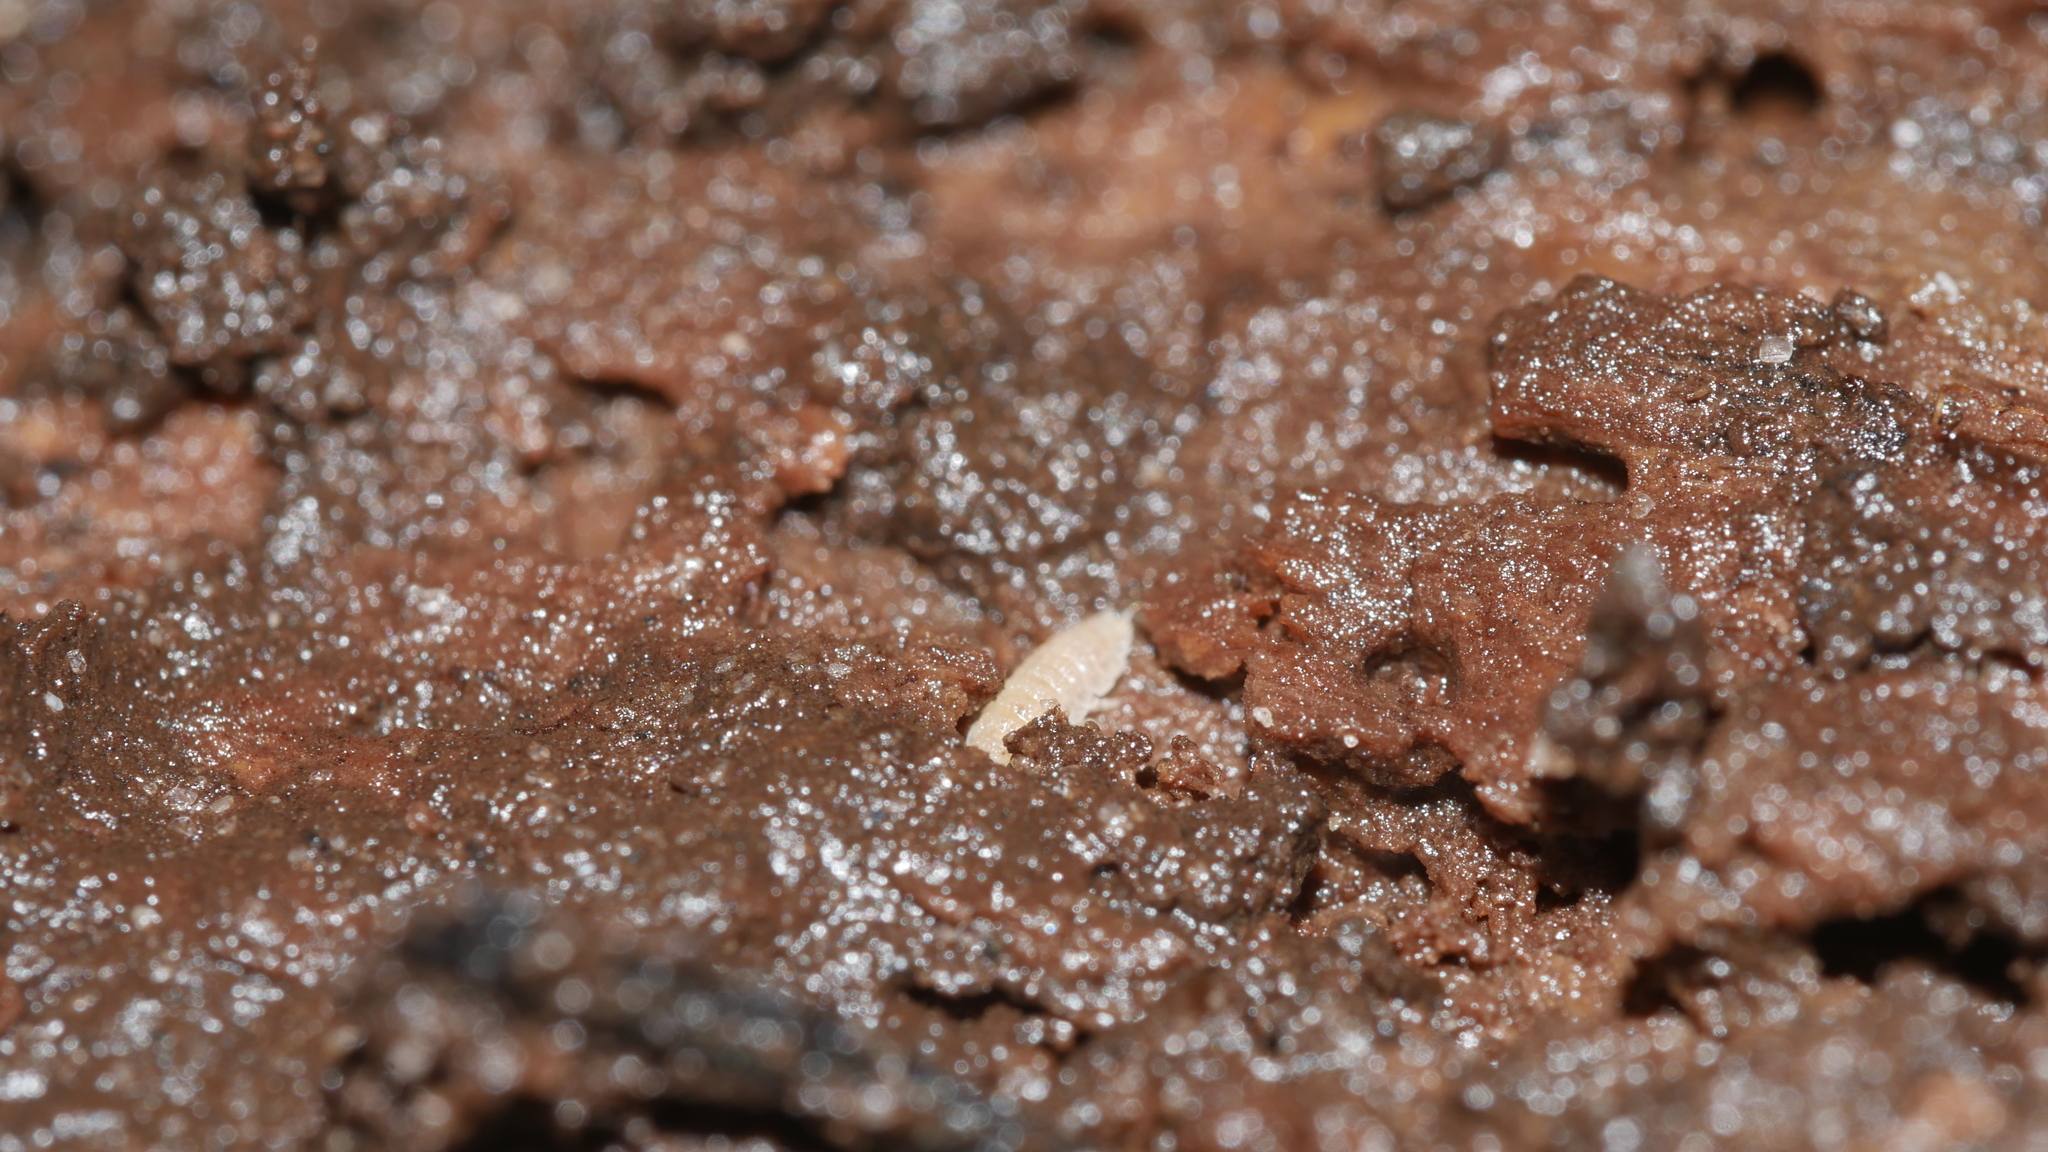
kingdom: Animalia
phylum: Arthropoda
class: Malacostraca
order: Isopoda
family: Trichoniscidae
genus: Haplophthalmus
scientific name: Haplophthalmus danicus
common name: Pillbug
